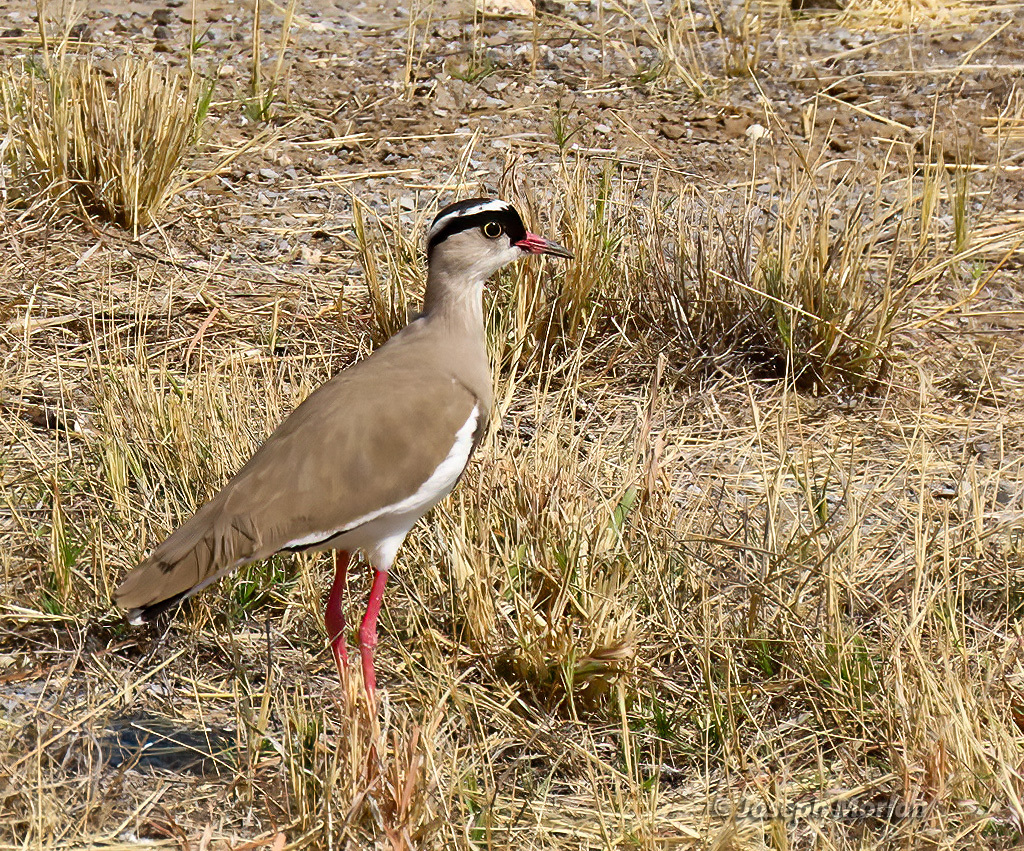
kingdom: Animalia
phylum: Chordata
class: Aves
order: Charadriiformes
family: Charadriidae
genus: Vanellus
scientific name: Vanellus coronatus
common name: Crowned lapwing
